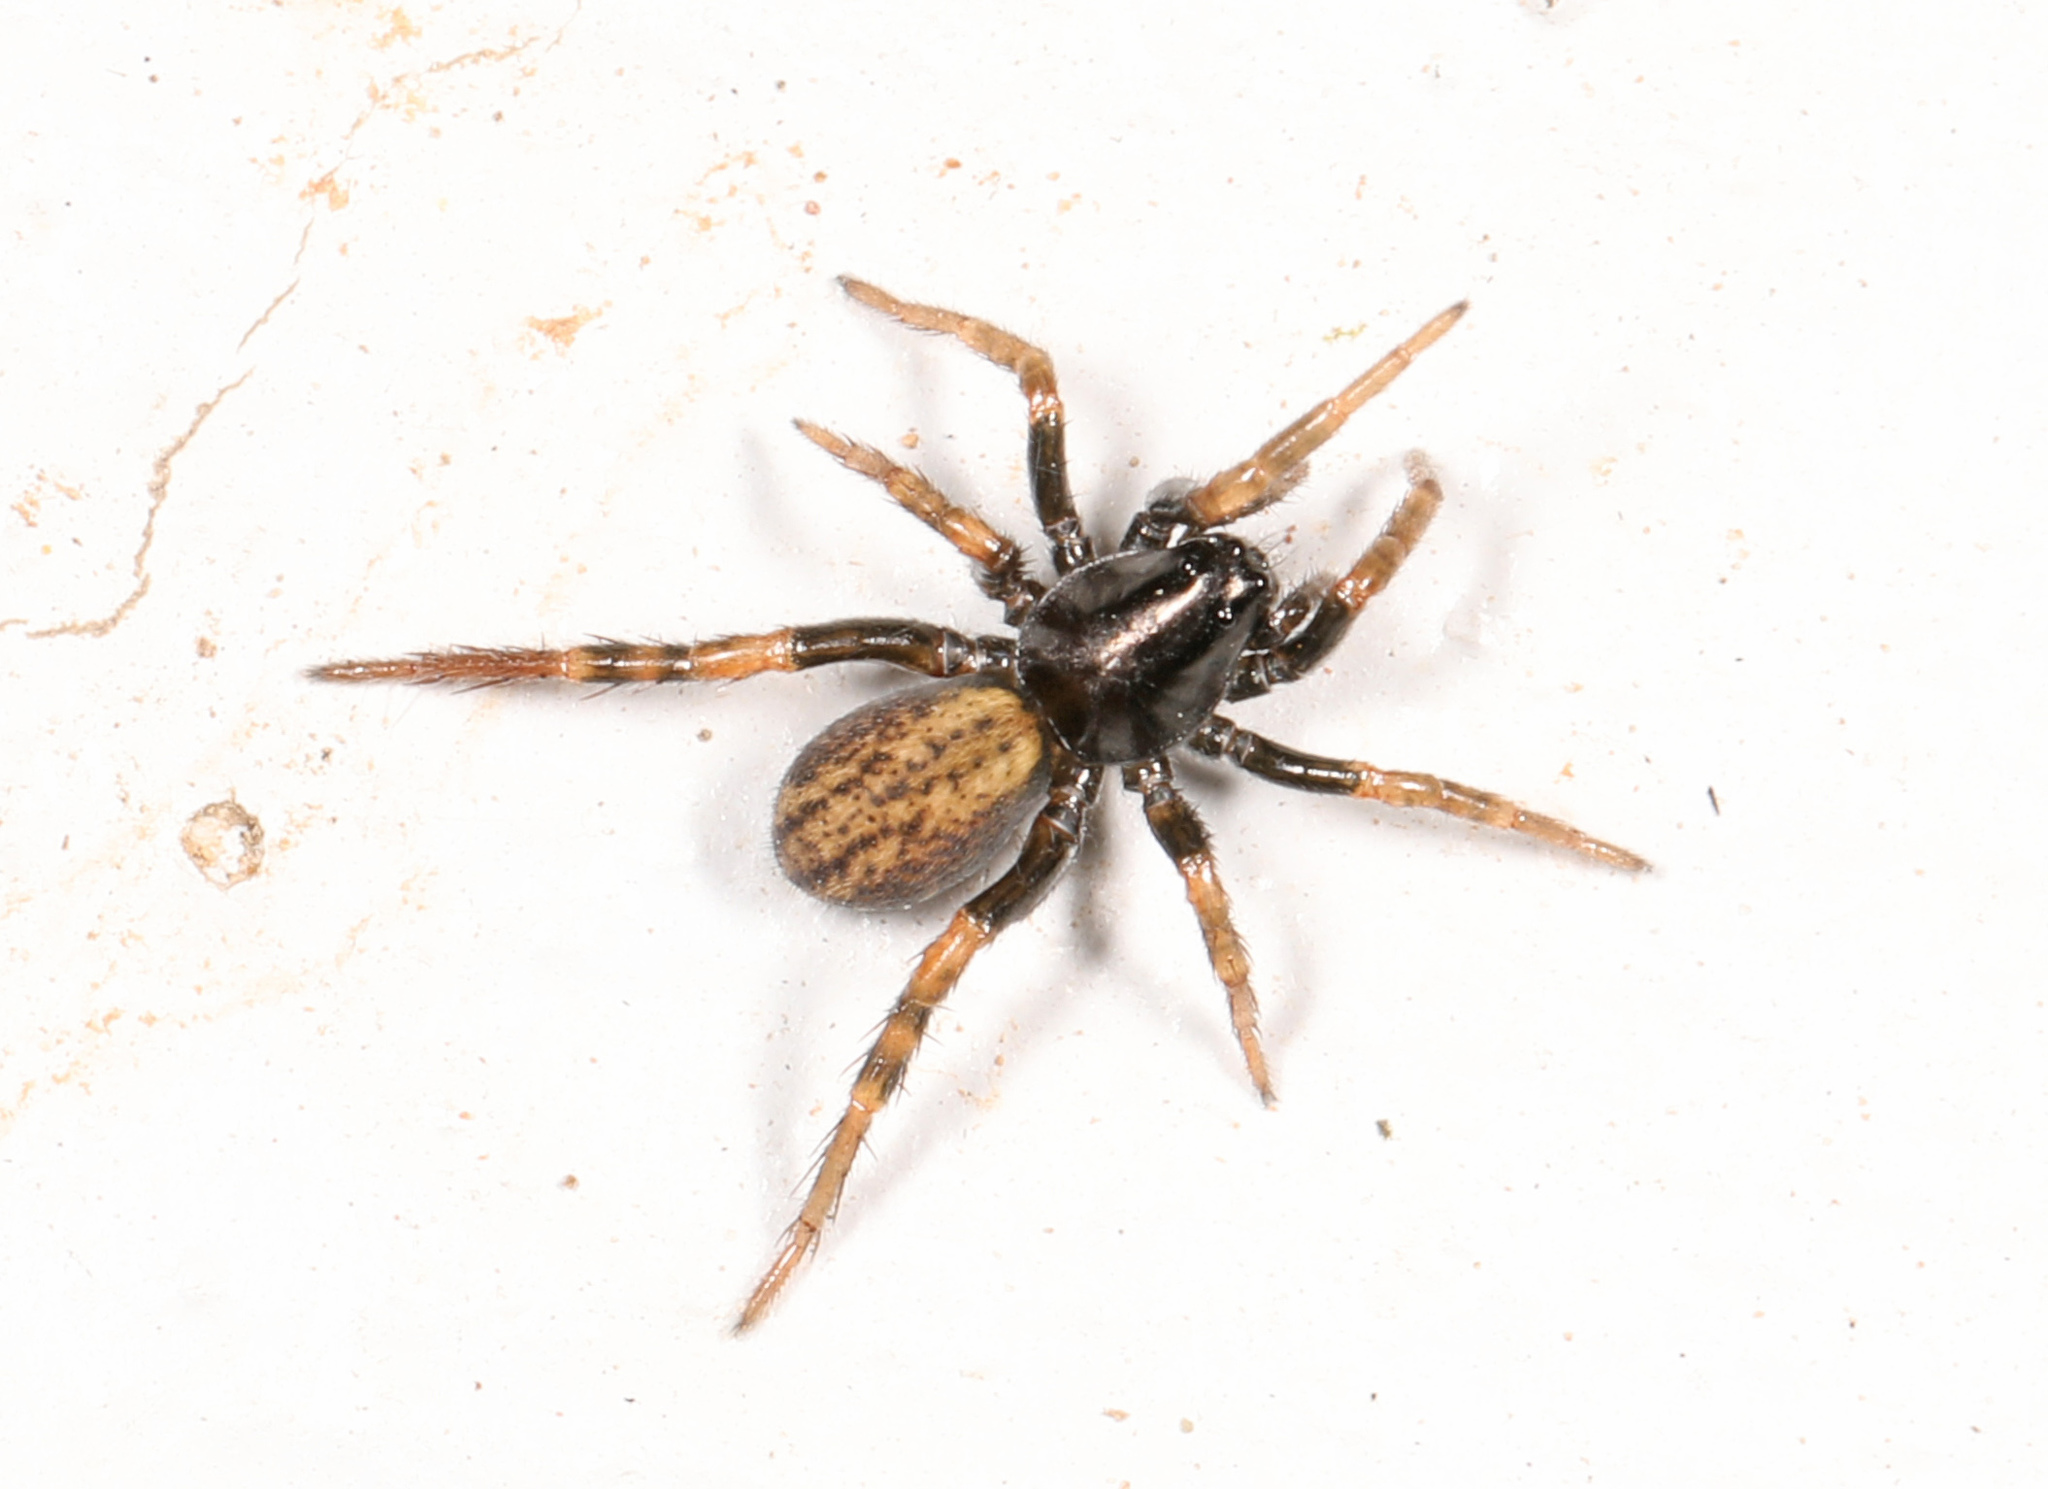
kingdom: Animalia
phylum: Arthropoda
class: Arachnida
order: Araneae
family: Lycosidae
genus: Allocosa
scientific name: Allocosa funerea
